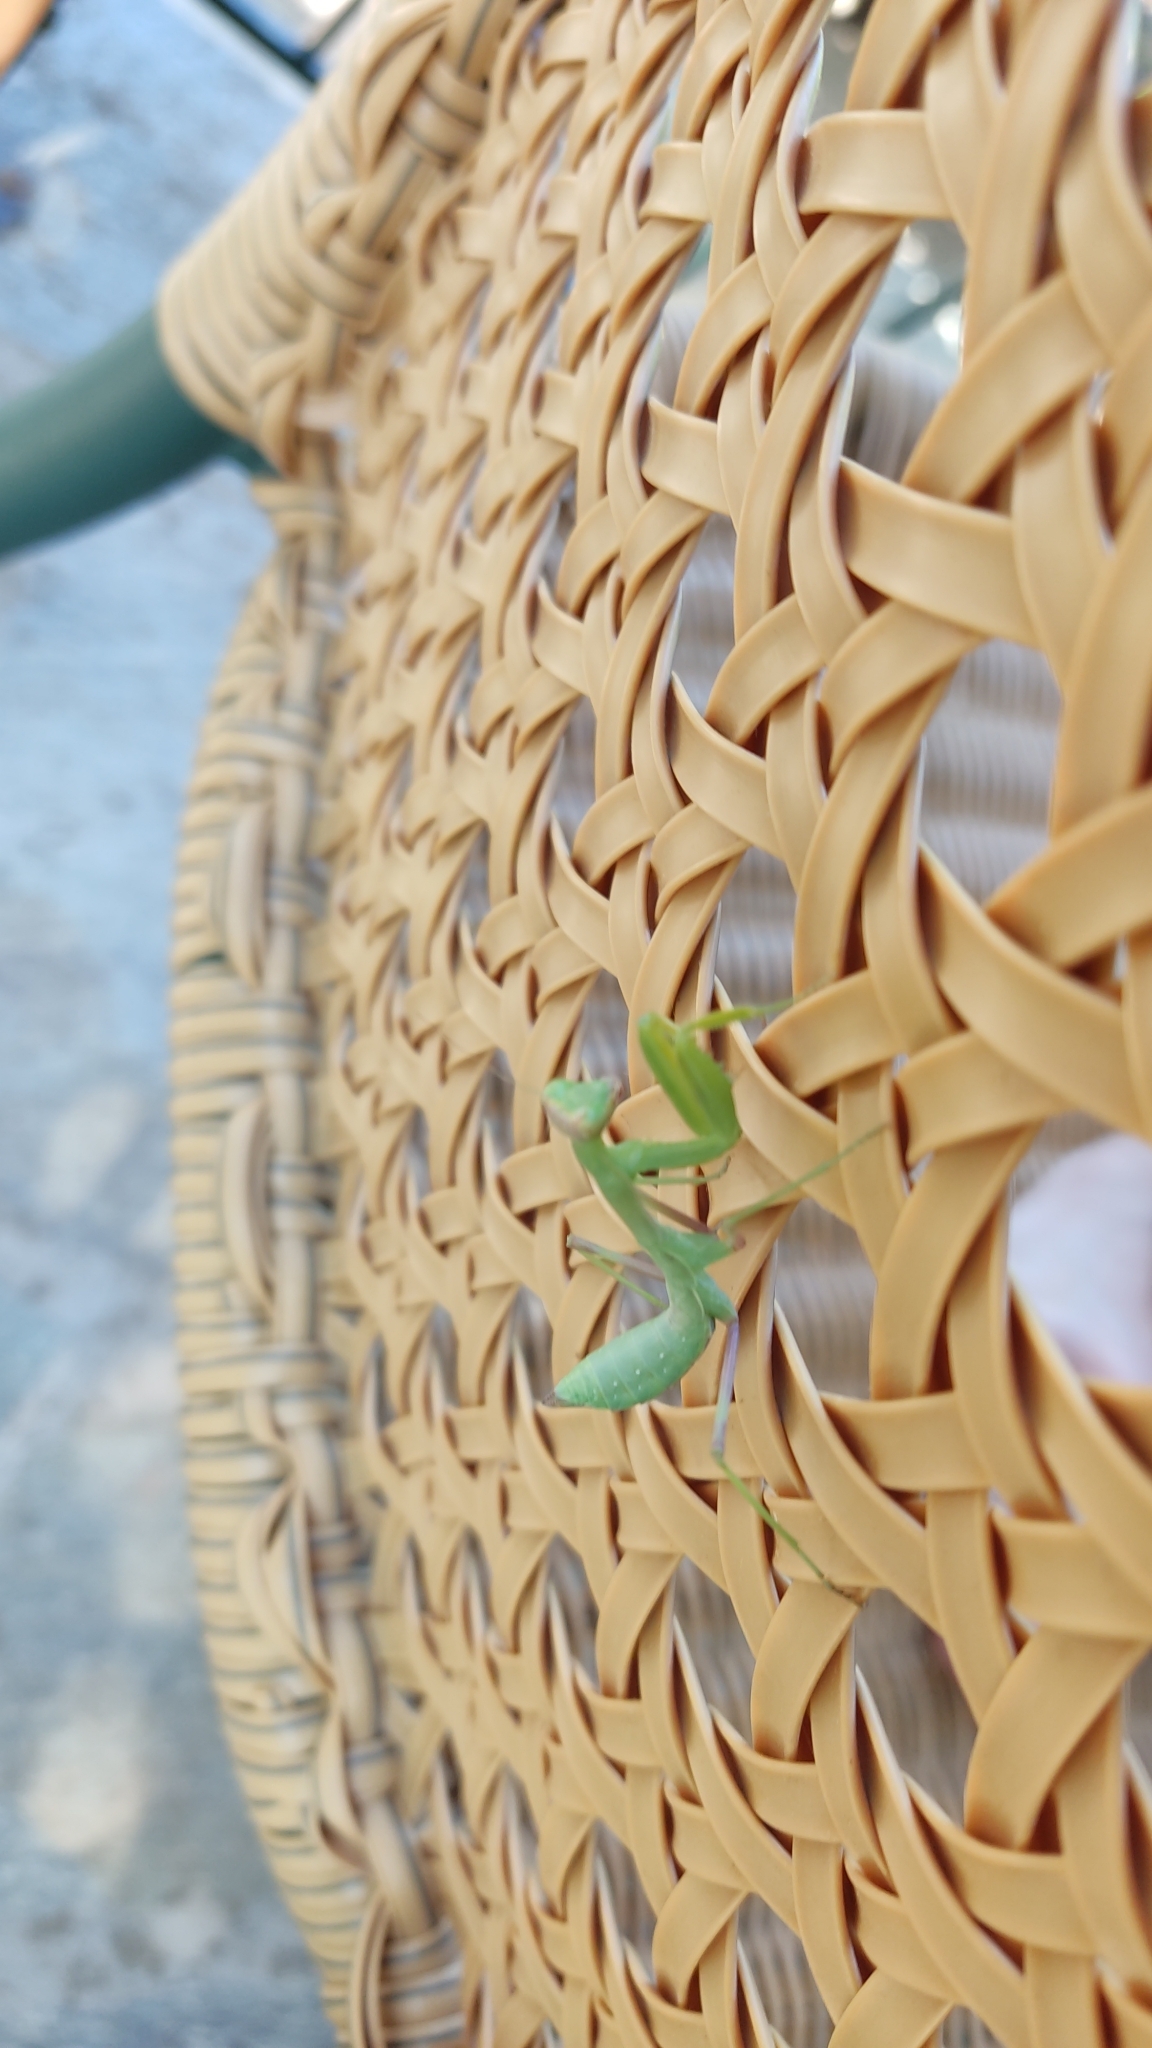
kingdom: Animalia
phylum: Arthropoda
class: Insecta
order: Mantodea
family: Mantidae
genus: Hierodula
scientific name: Hierodula transcaucasica
